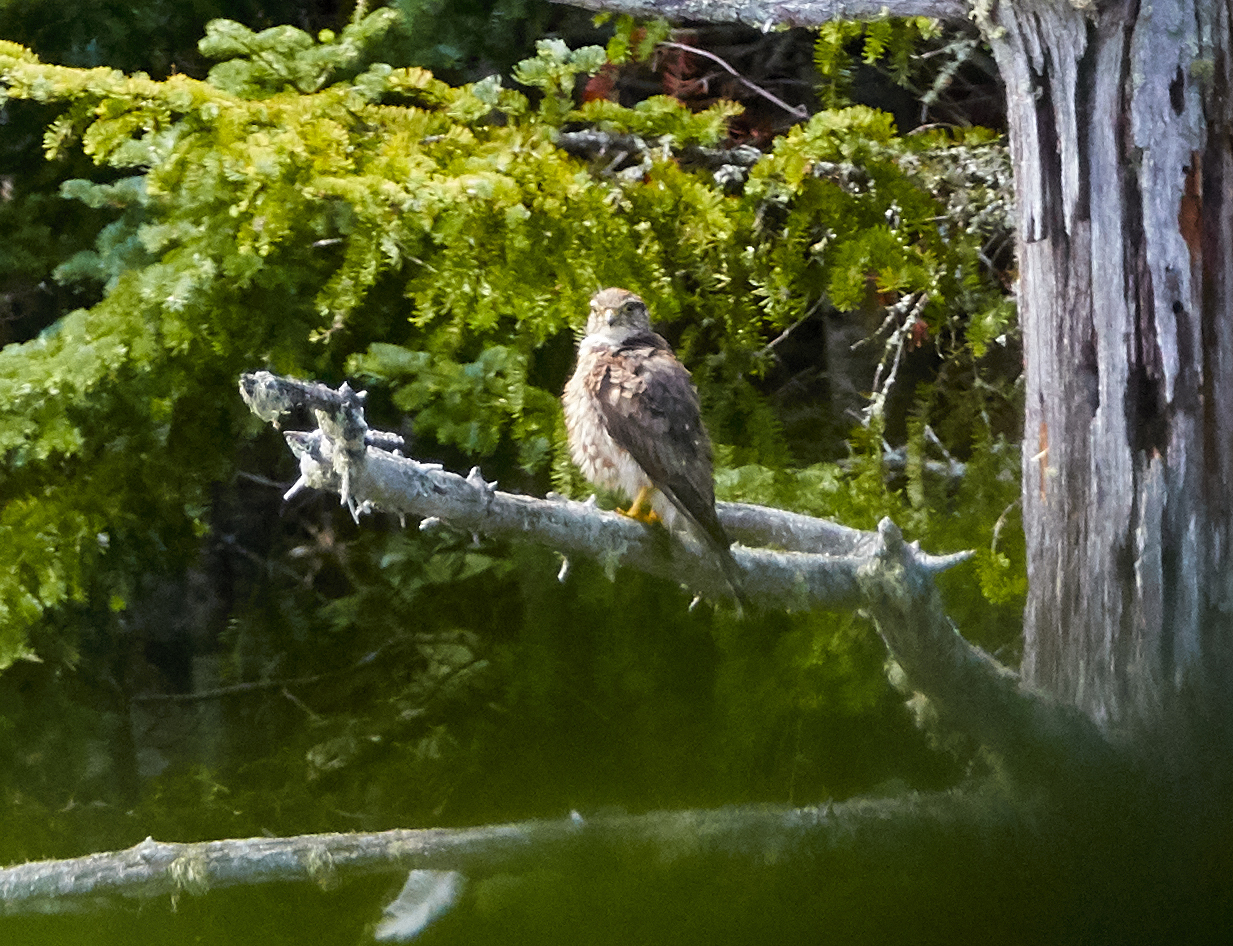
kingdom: Animalia
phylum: Chordata
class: Aves
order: Falconiformes
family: Falconidae
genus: Falco
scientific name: Falco columbarius
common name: Merlin
